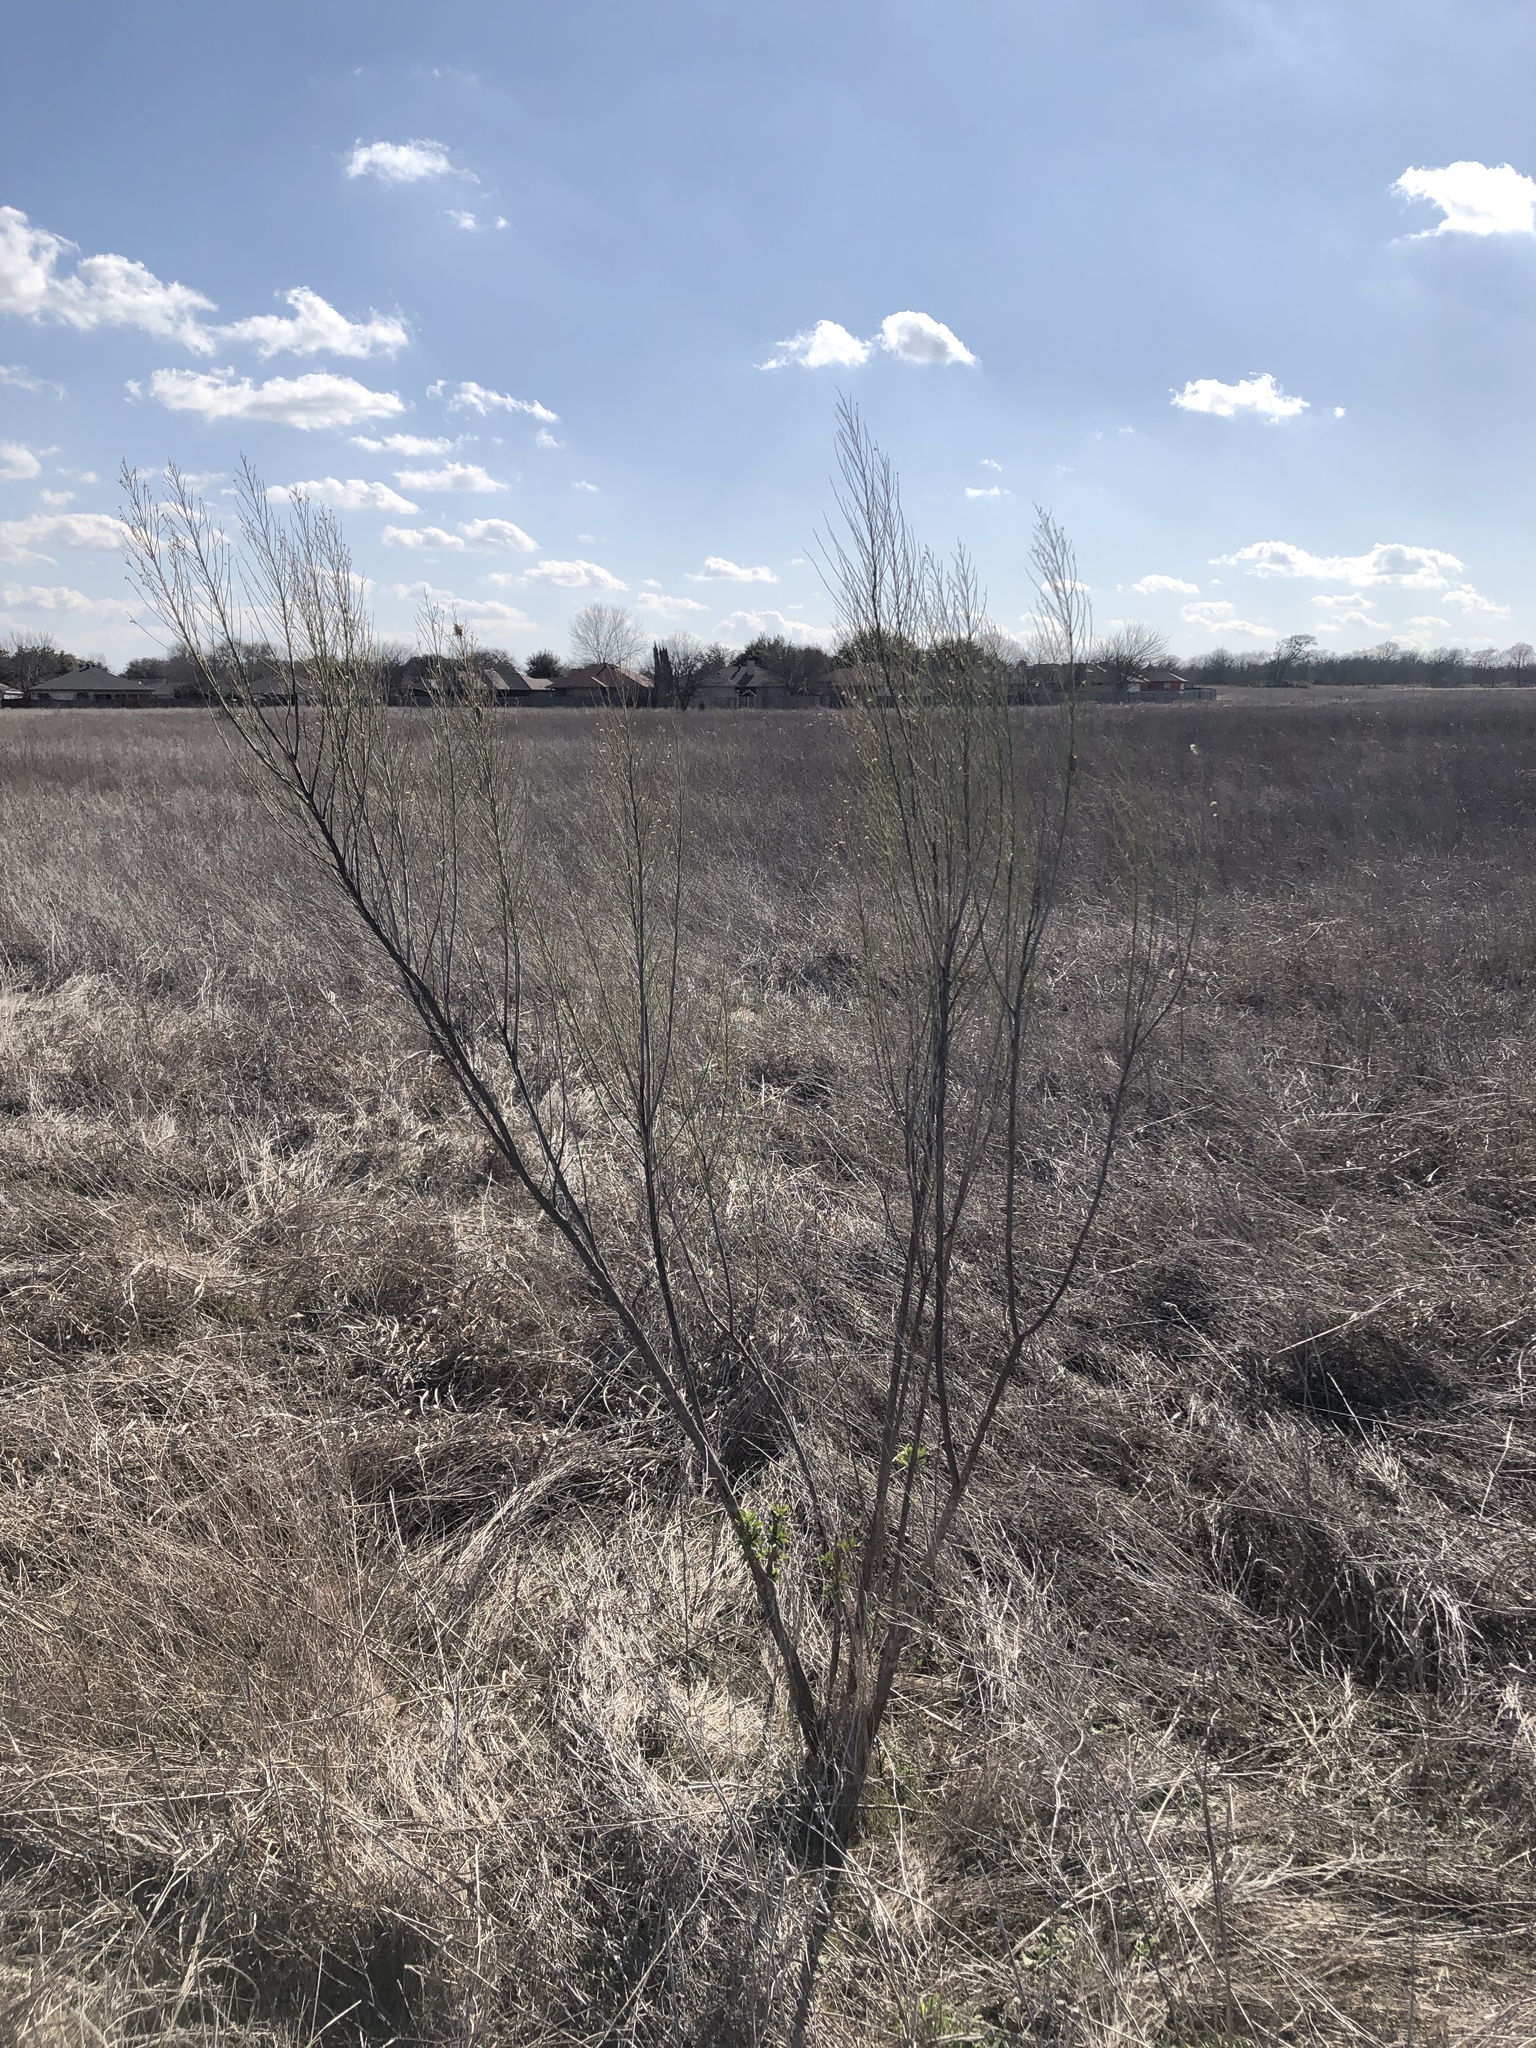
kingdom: Plantae
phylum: Tracheophyta
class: Magnoliopsida
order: Asterales
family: Asteraceae
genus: Baccharis
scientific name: Baccharis neglecta
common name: Roosevelt-weed
